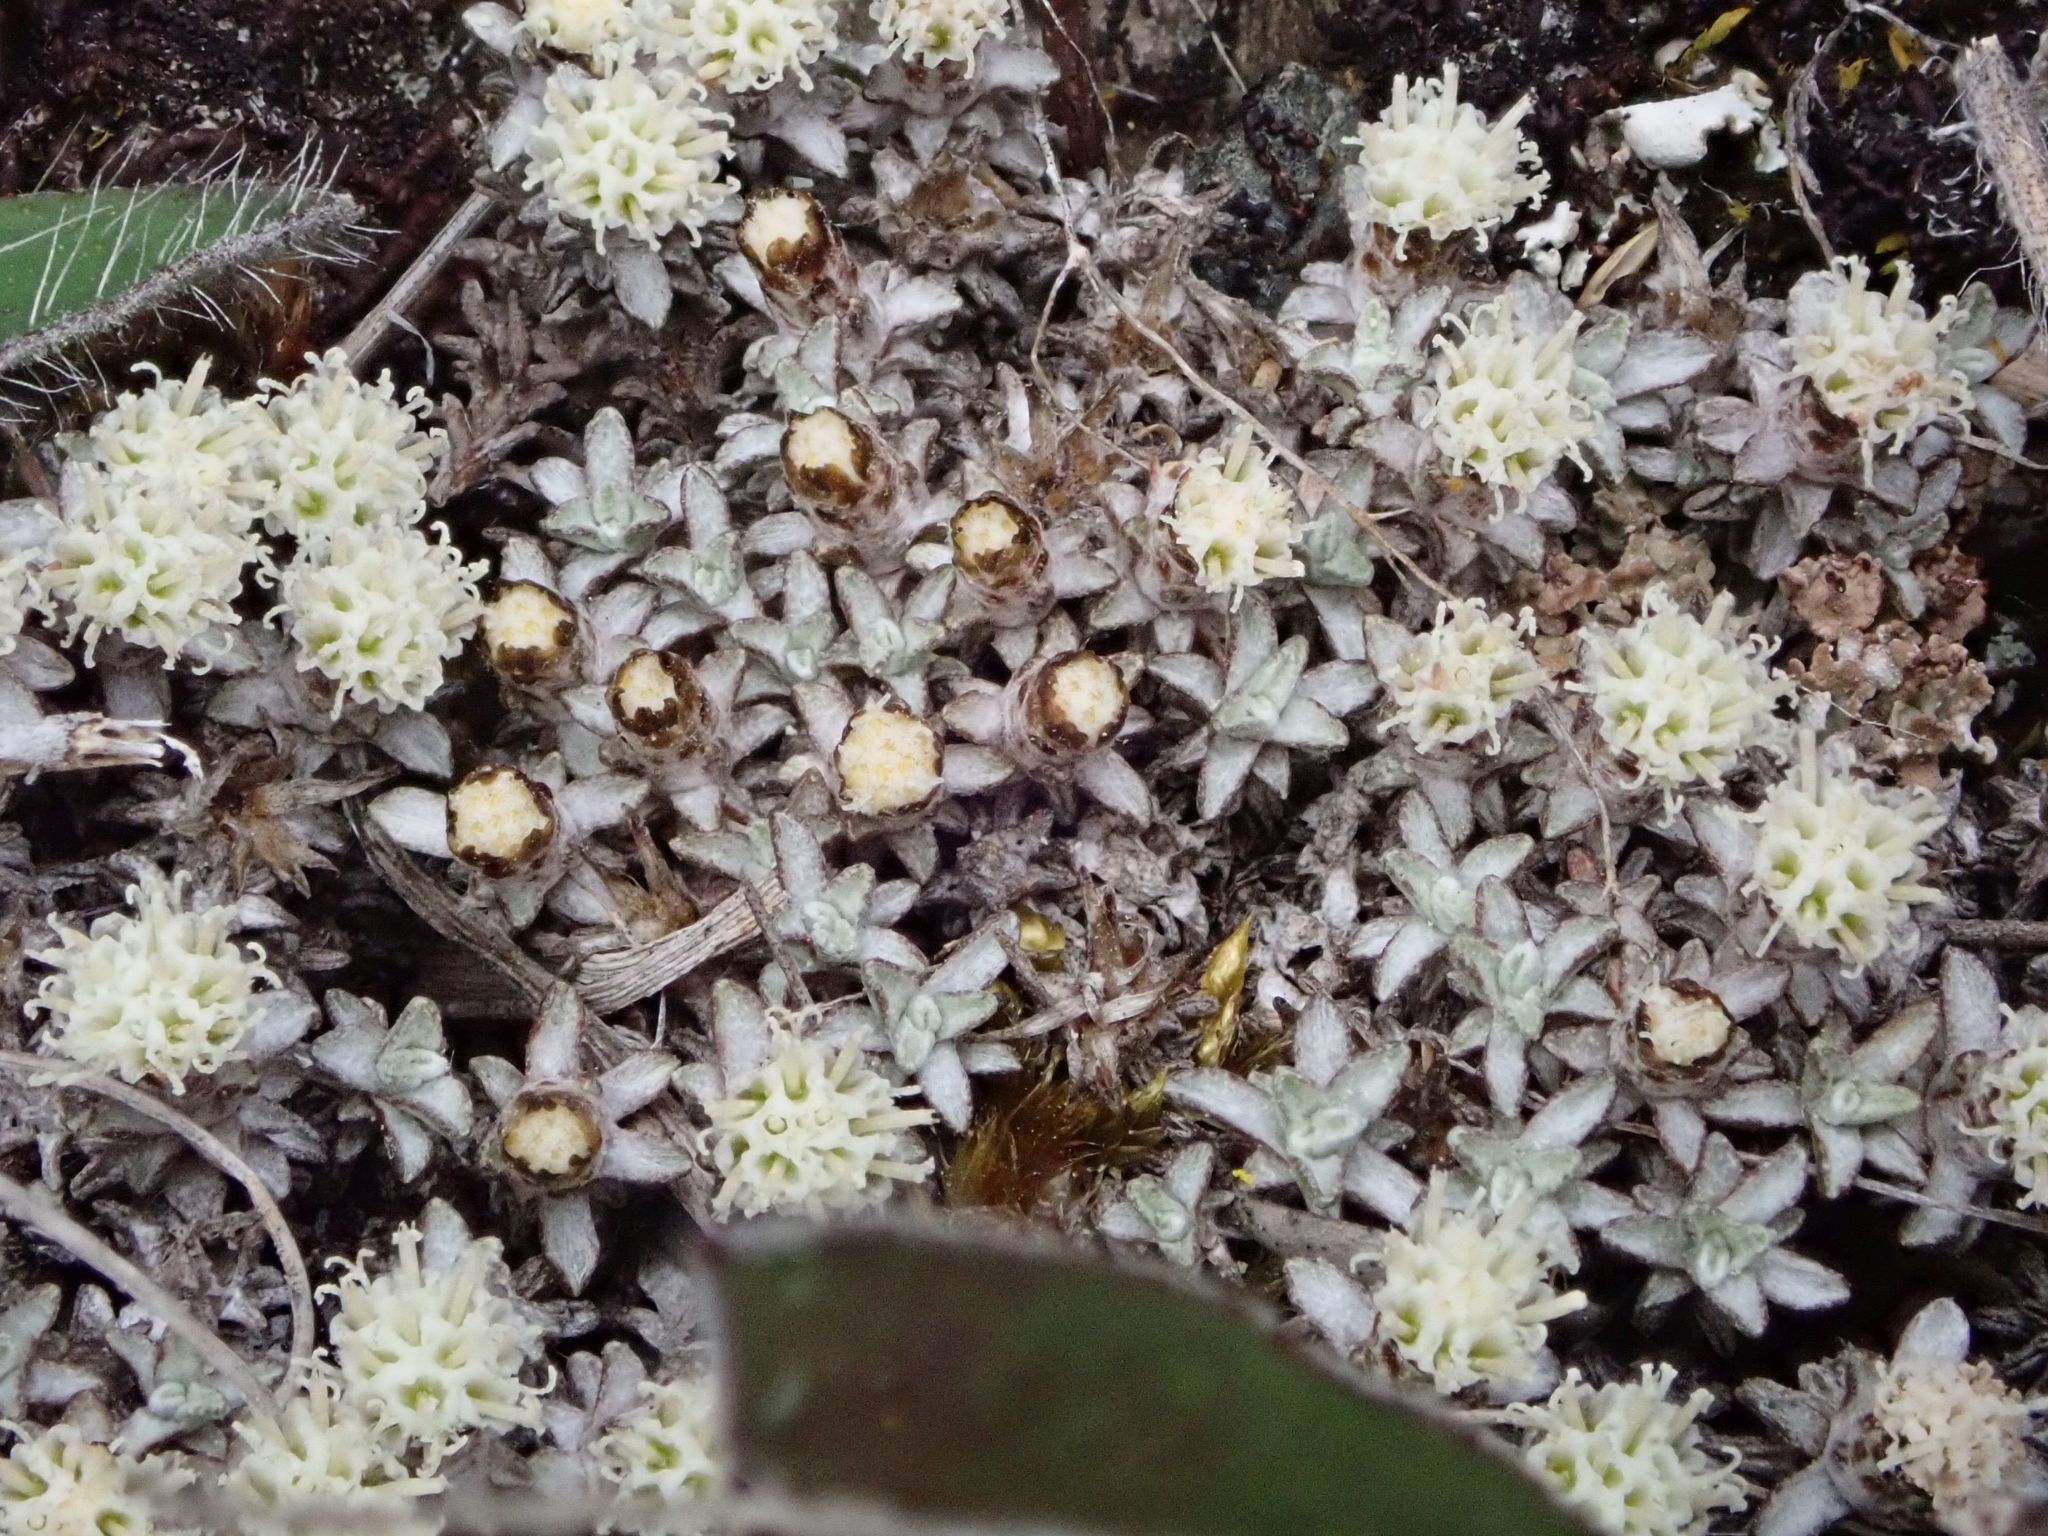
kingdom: Plantae
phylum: Tracheophyta
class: Magnoliopsida
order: Asterales
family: Asteraceae
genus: Raoulia
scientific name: Raoulia beauverdii
